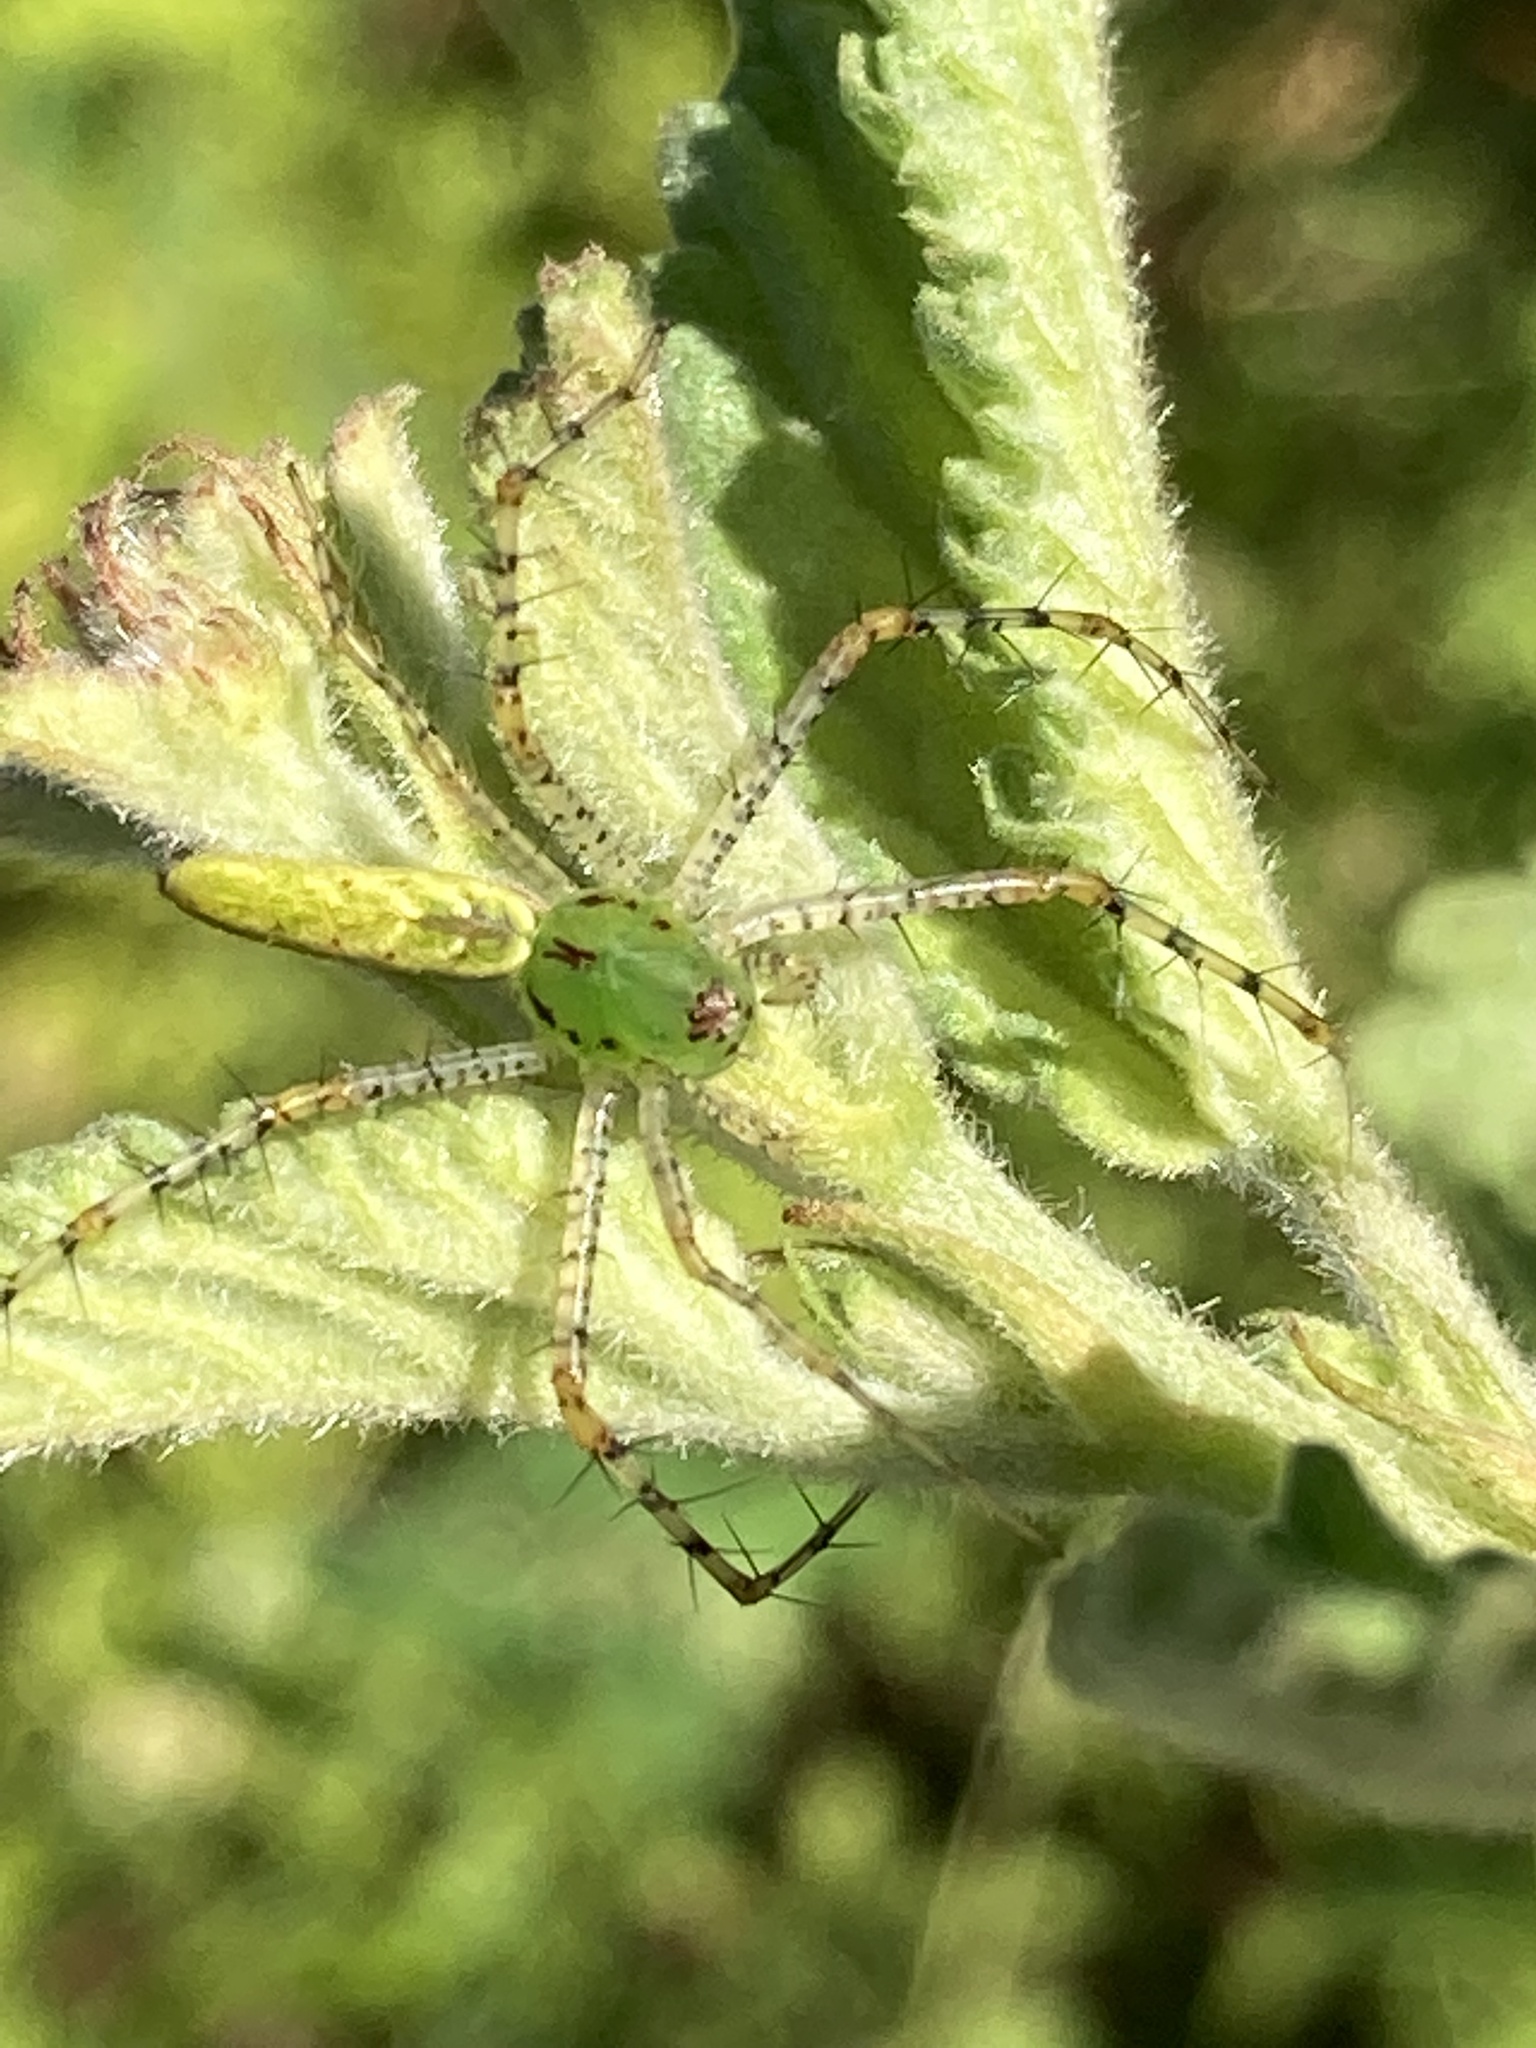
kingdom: Animalia
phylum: Arthropoda
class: Arachnida
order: Araneae
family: Oxyopidae
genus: Peucetia
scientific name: Peucetia viridans
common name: Lynx spiders
